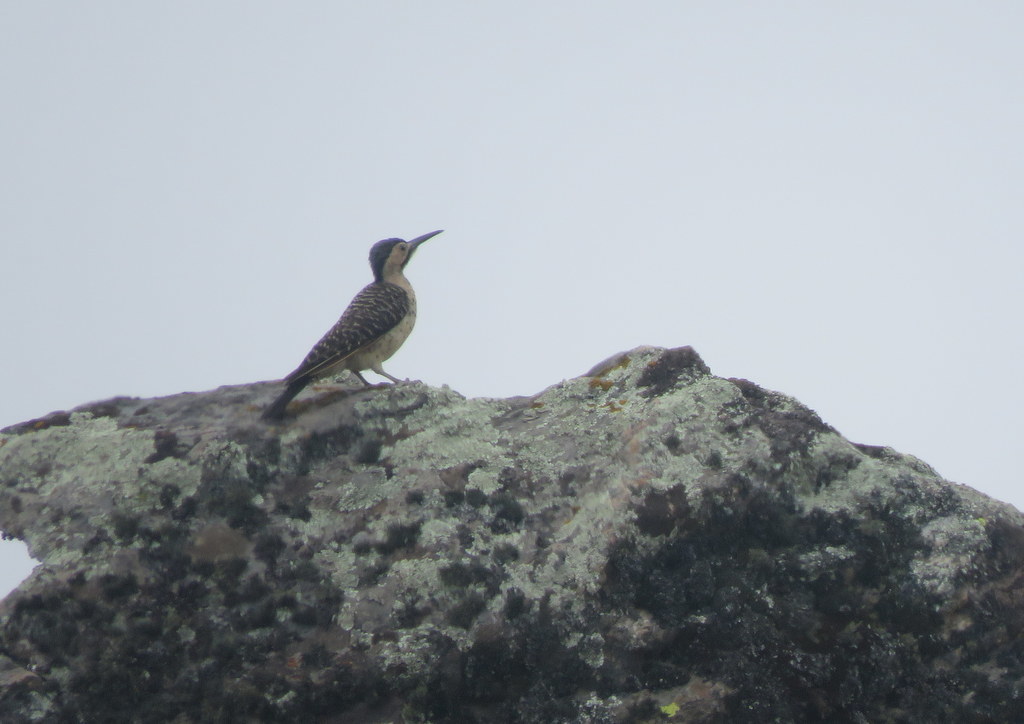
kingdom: Animalia
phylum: Chordata
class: Aves
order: Piciformes
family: Picidae
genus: Colaptes
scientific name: Colaptes rupicola
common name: Andean flicker
